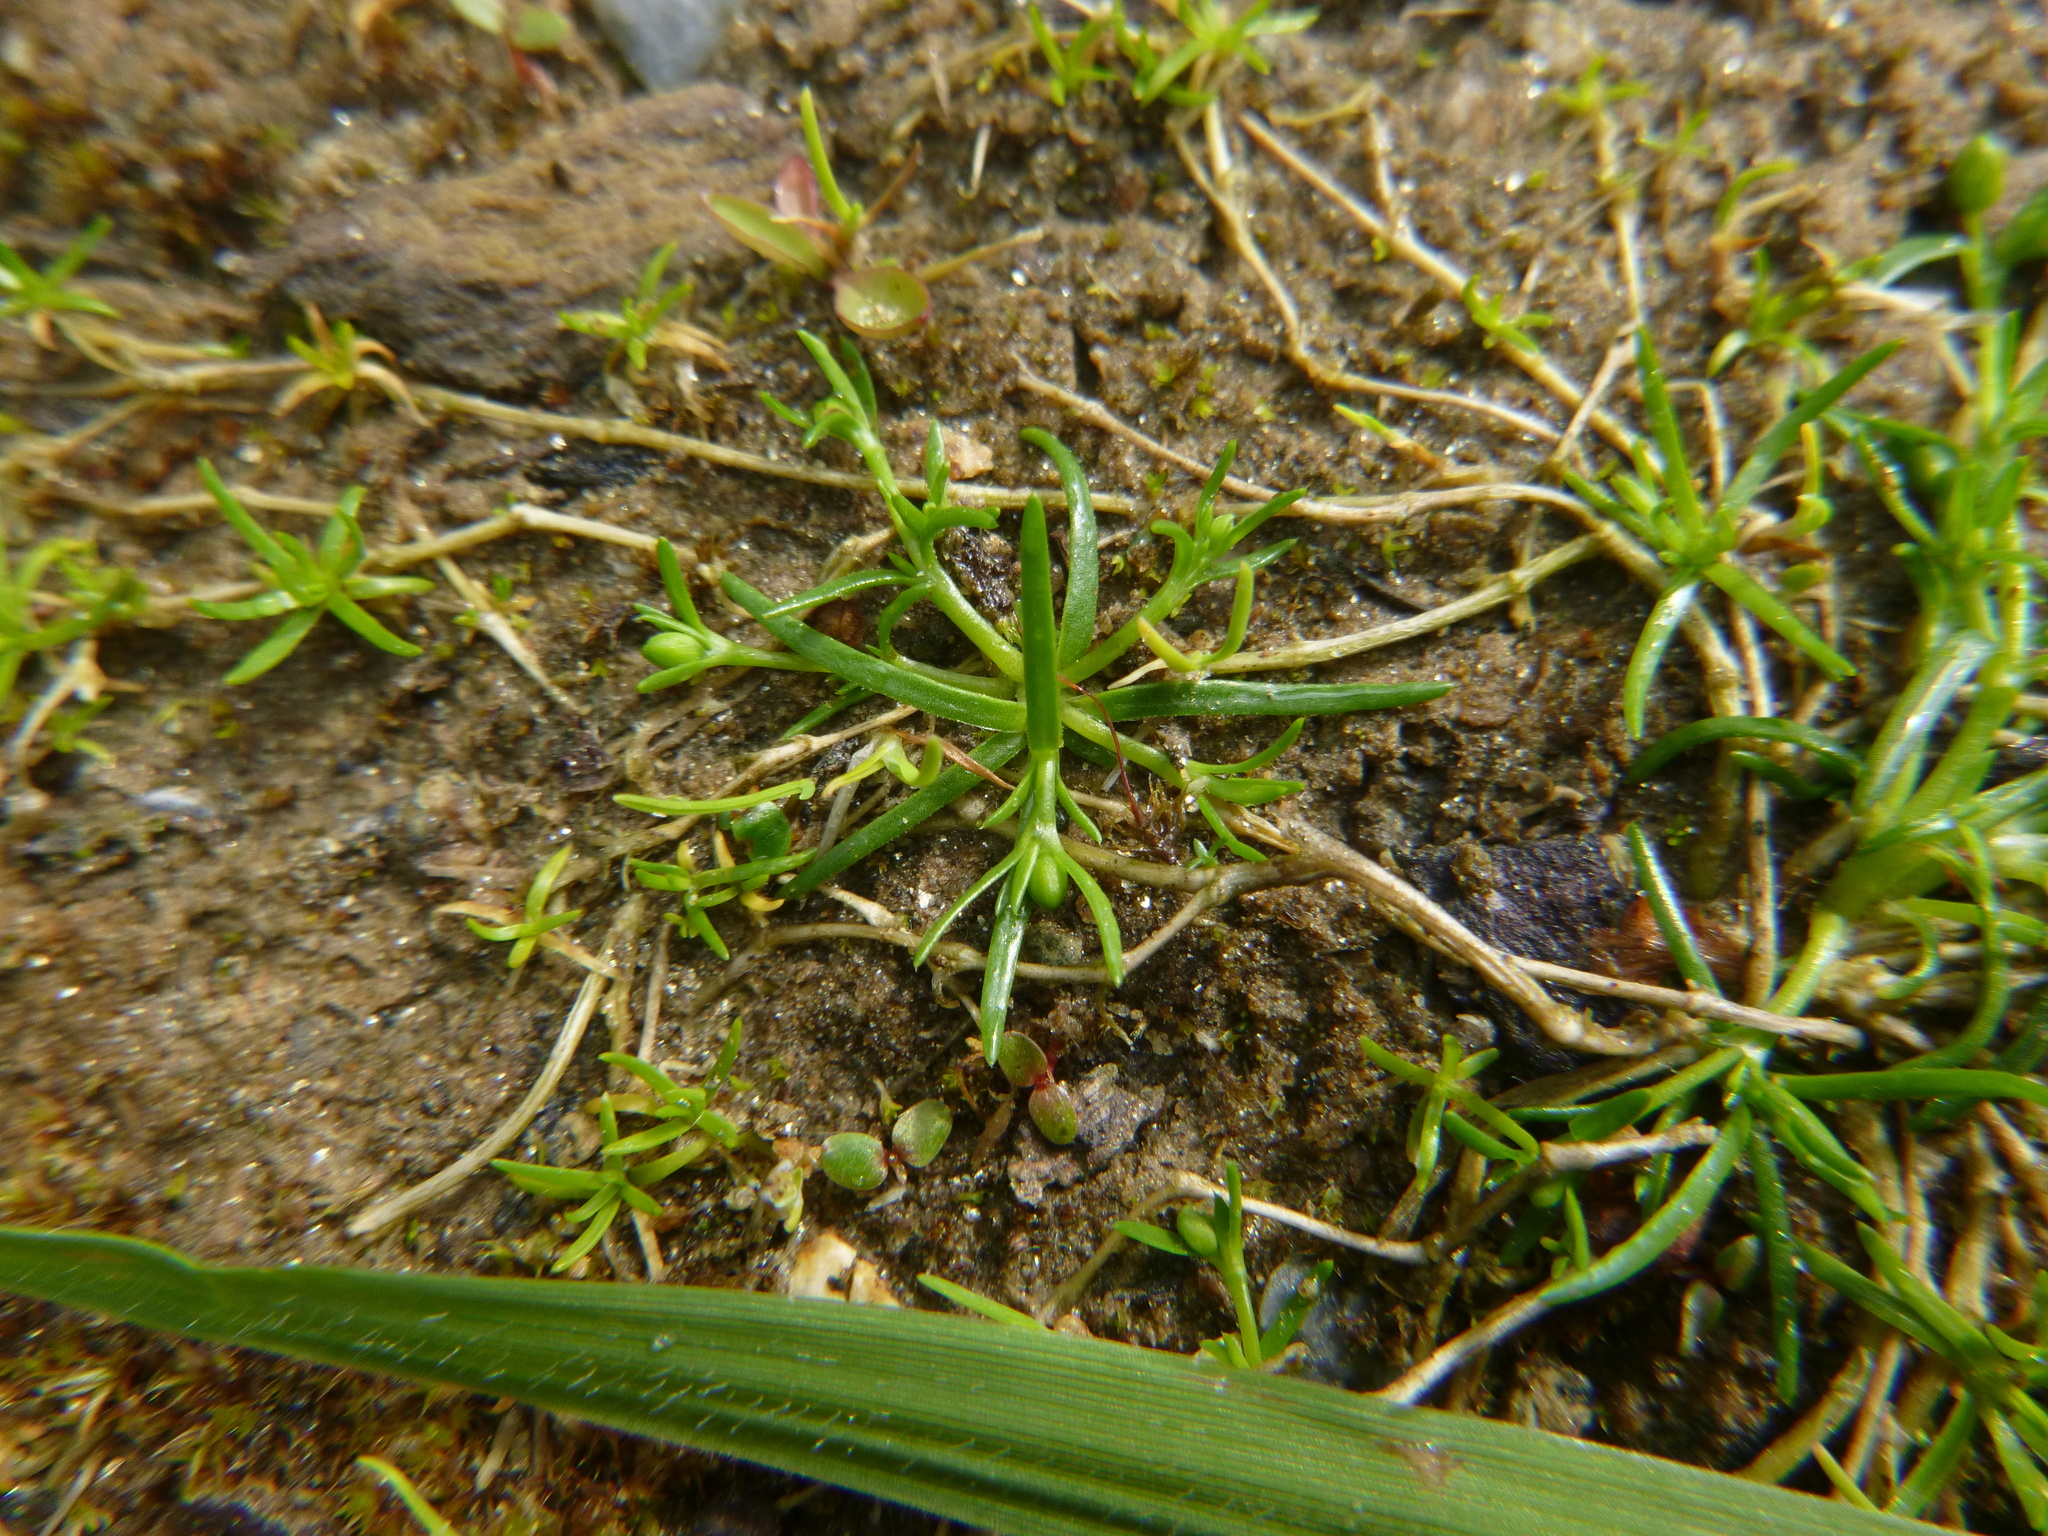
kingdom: Plantae
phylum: Tracheophyta
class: Magnoliopsida
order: Caryophyllales
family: Caryophyllaceae
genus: Sagina
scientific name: Sagina procumbens
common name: Procumbent pearlwort
